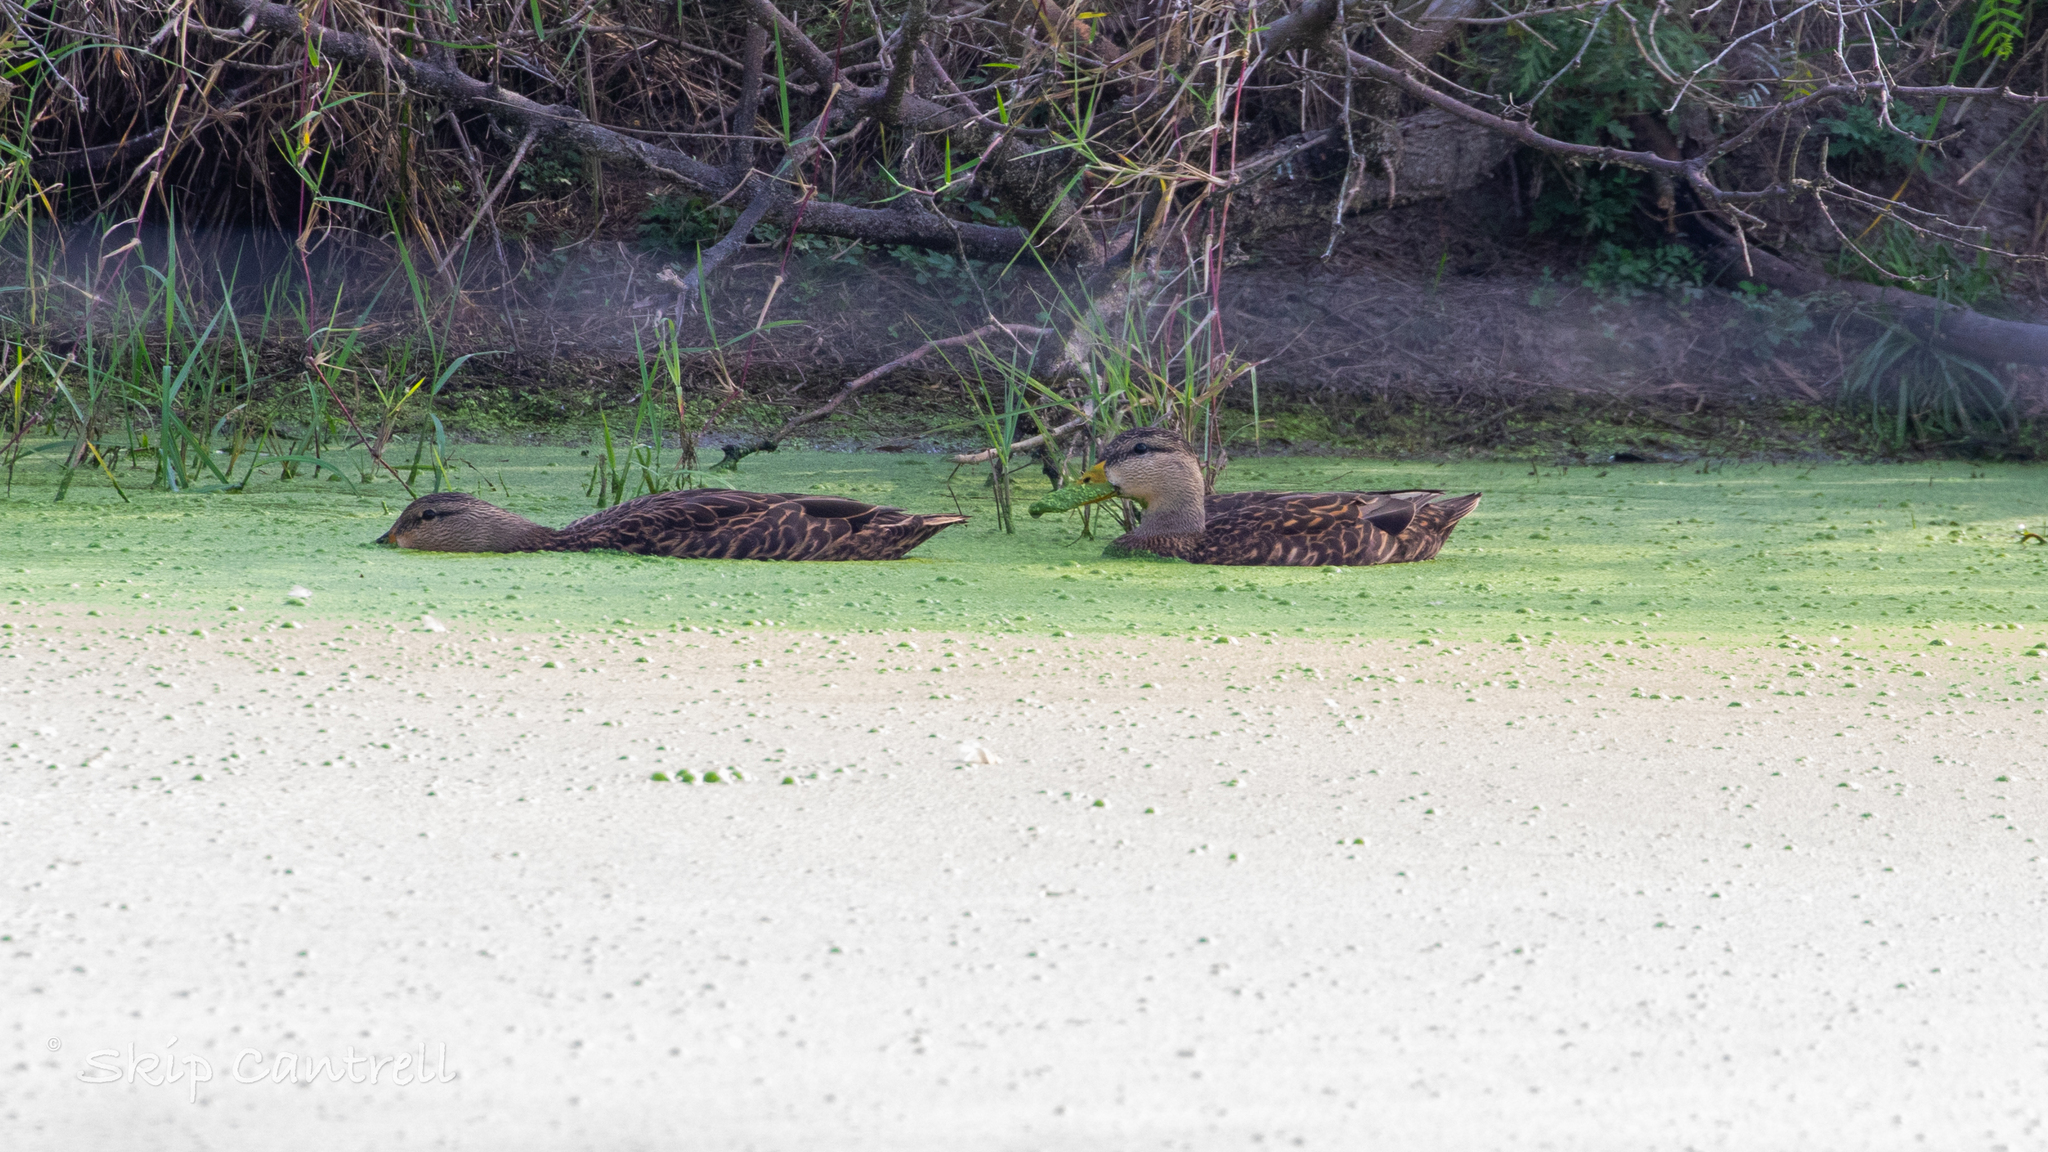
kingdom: Animalia
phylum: Chordata
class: Aves
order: Anseriformes
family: Anatidae
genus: Anas
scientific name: Anas fulvigula
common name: Mottled duck
